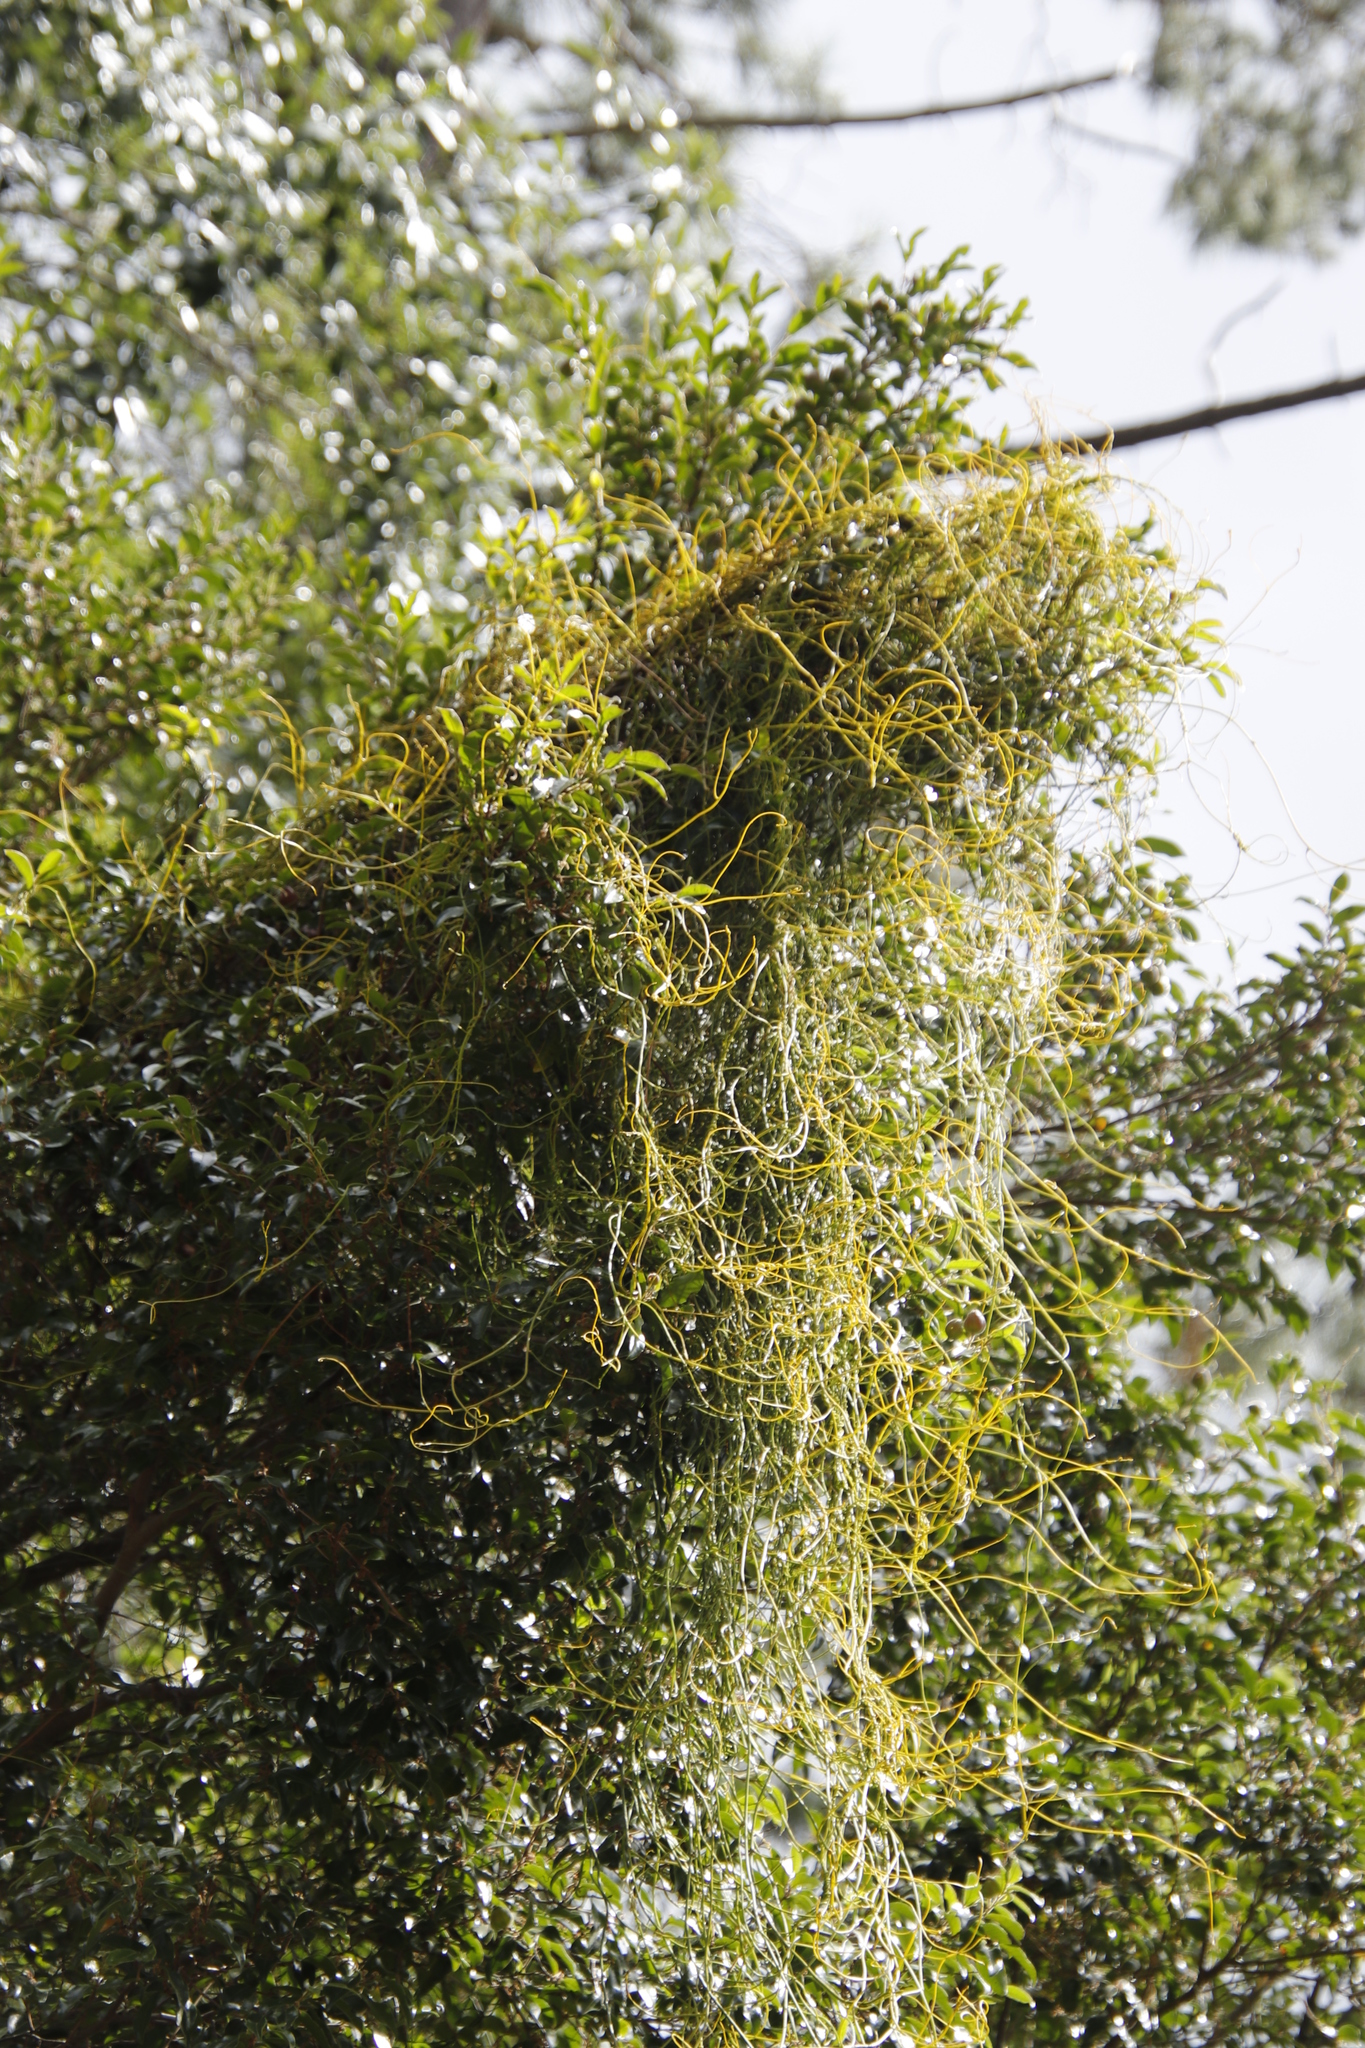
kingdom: Plantae
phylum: Tracheophyta
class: Magnoliopsida
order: Laurales
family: Lauraceae
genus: Cassytha
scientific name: Cassytha ciliolata
